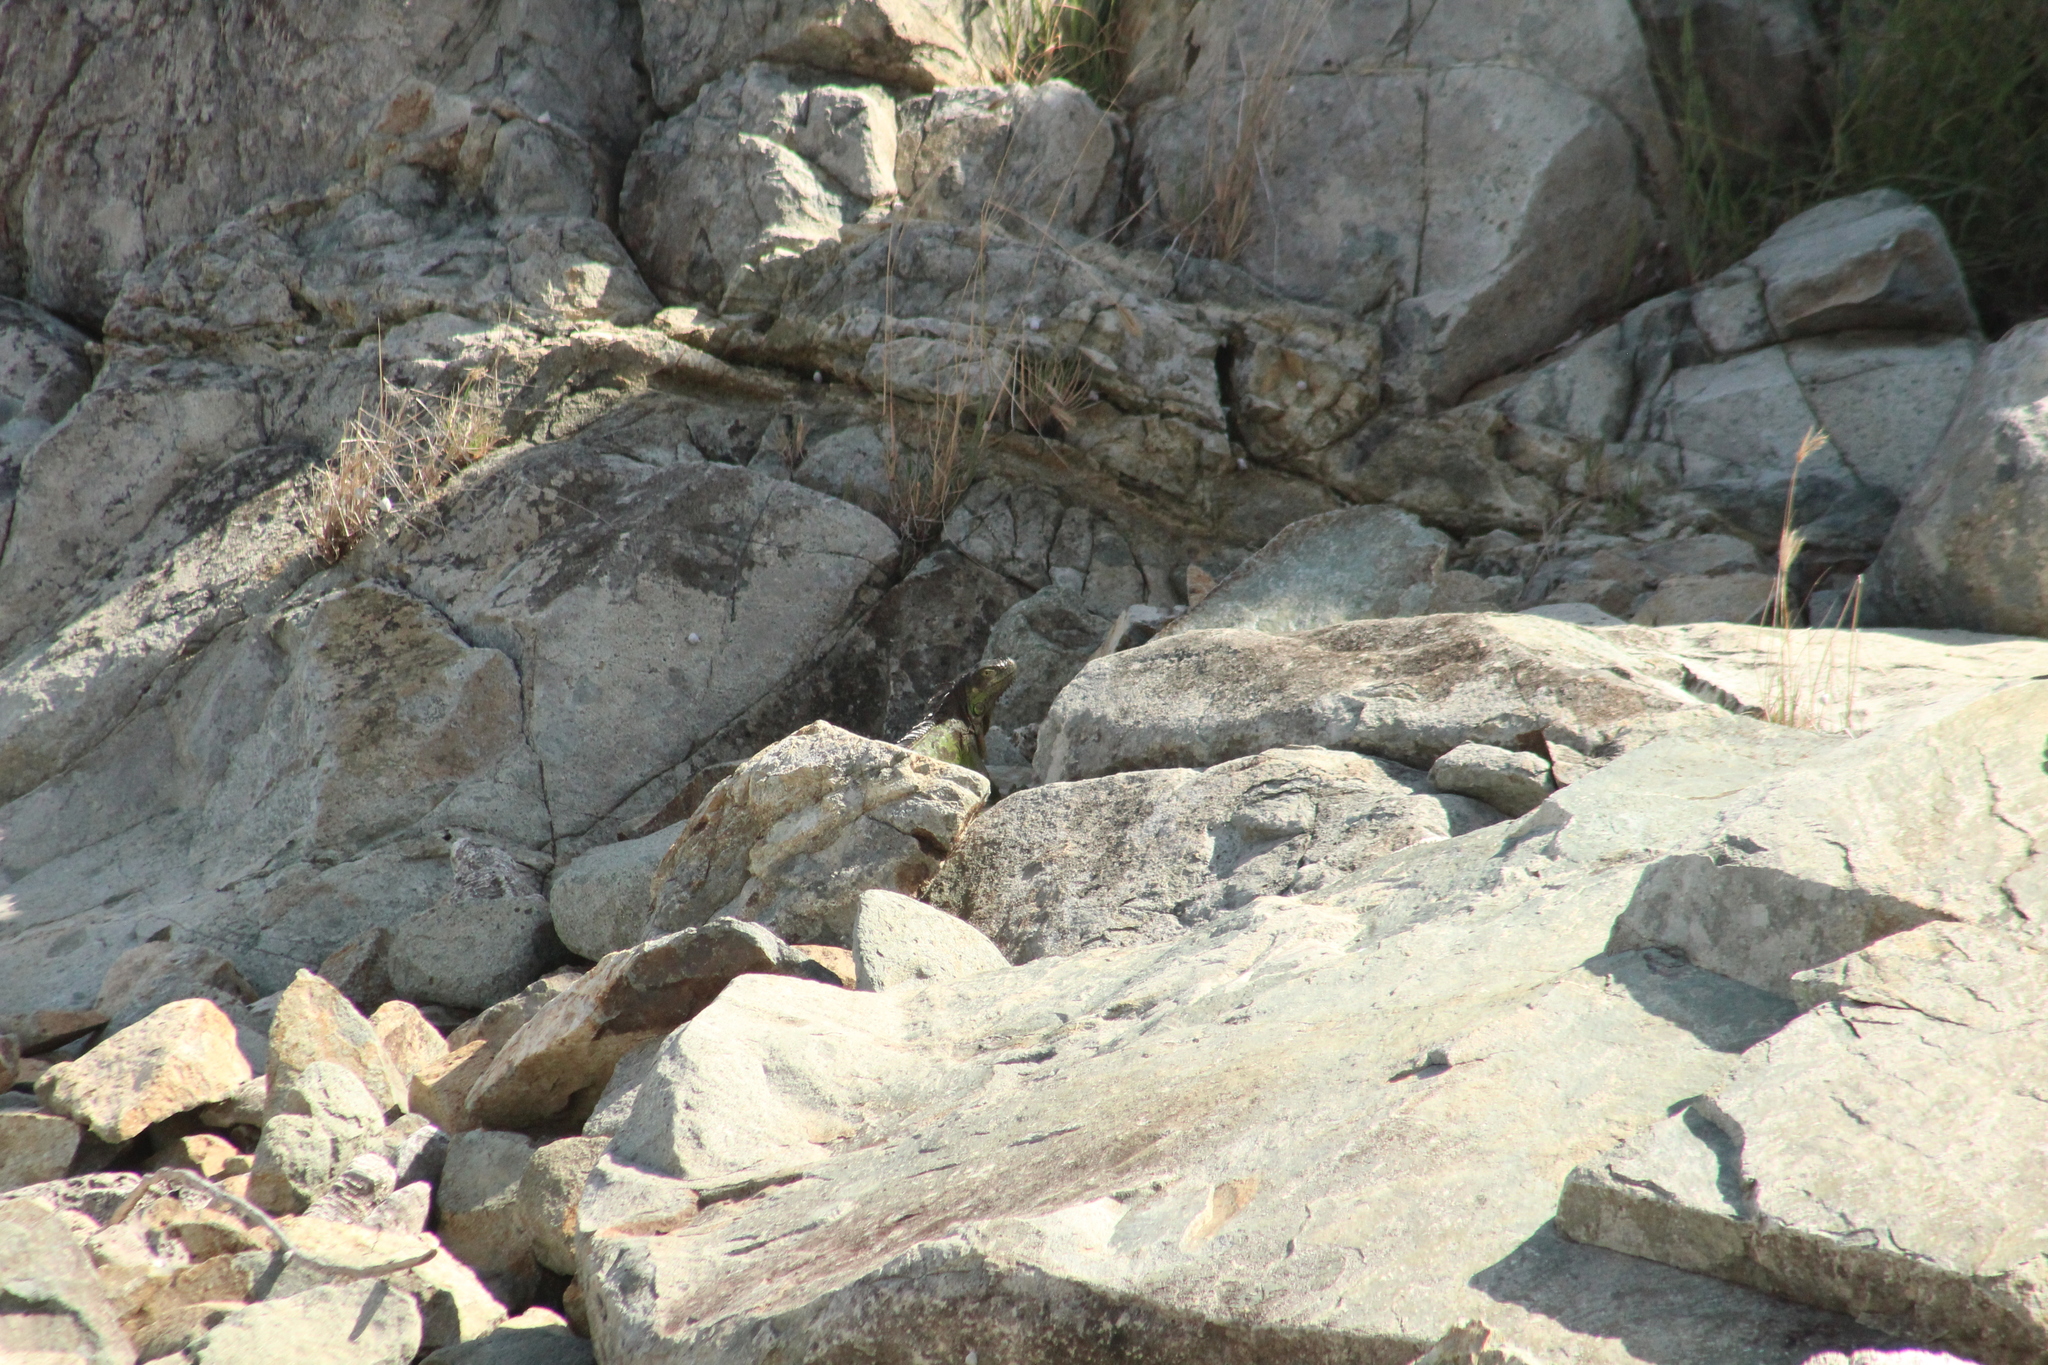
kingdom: Animalia
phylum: Chordata
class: Squamata
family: Iguanidae
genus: Iguana
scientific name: Iguana iguana
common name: Green iguana
